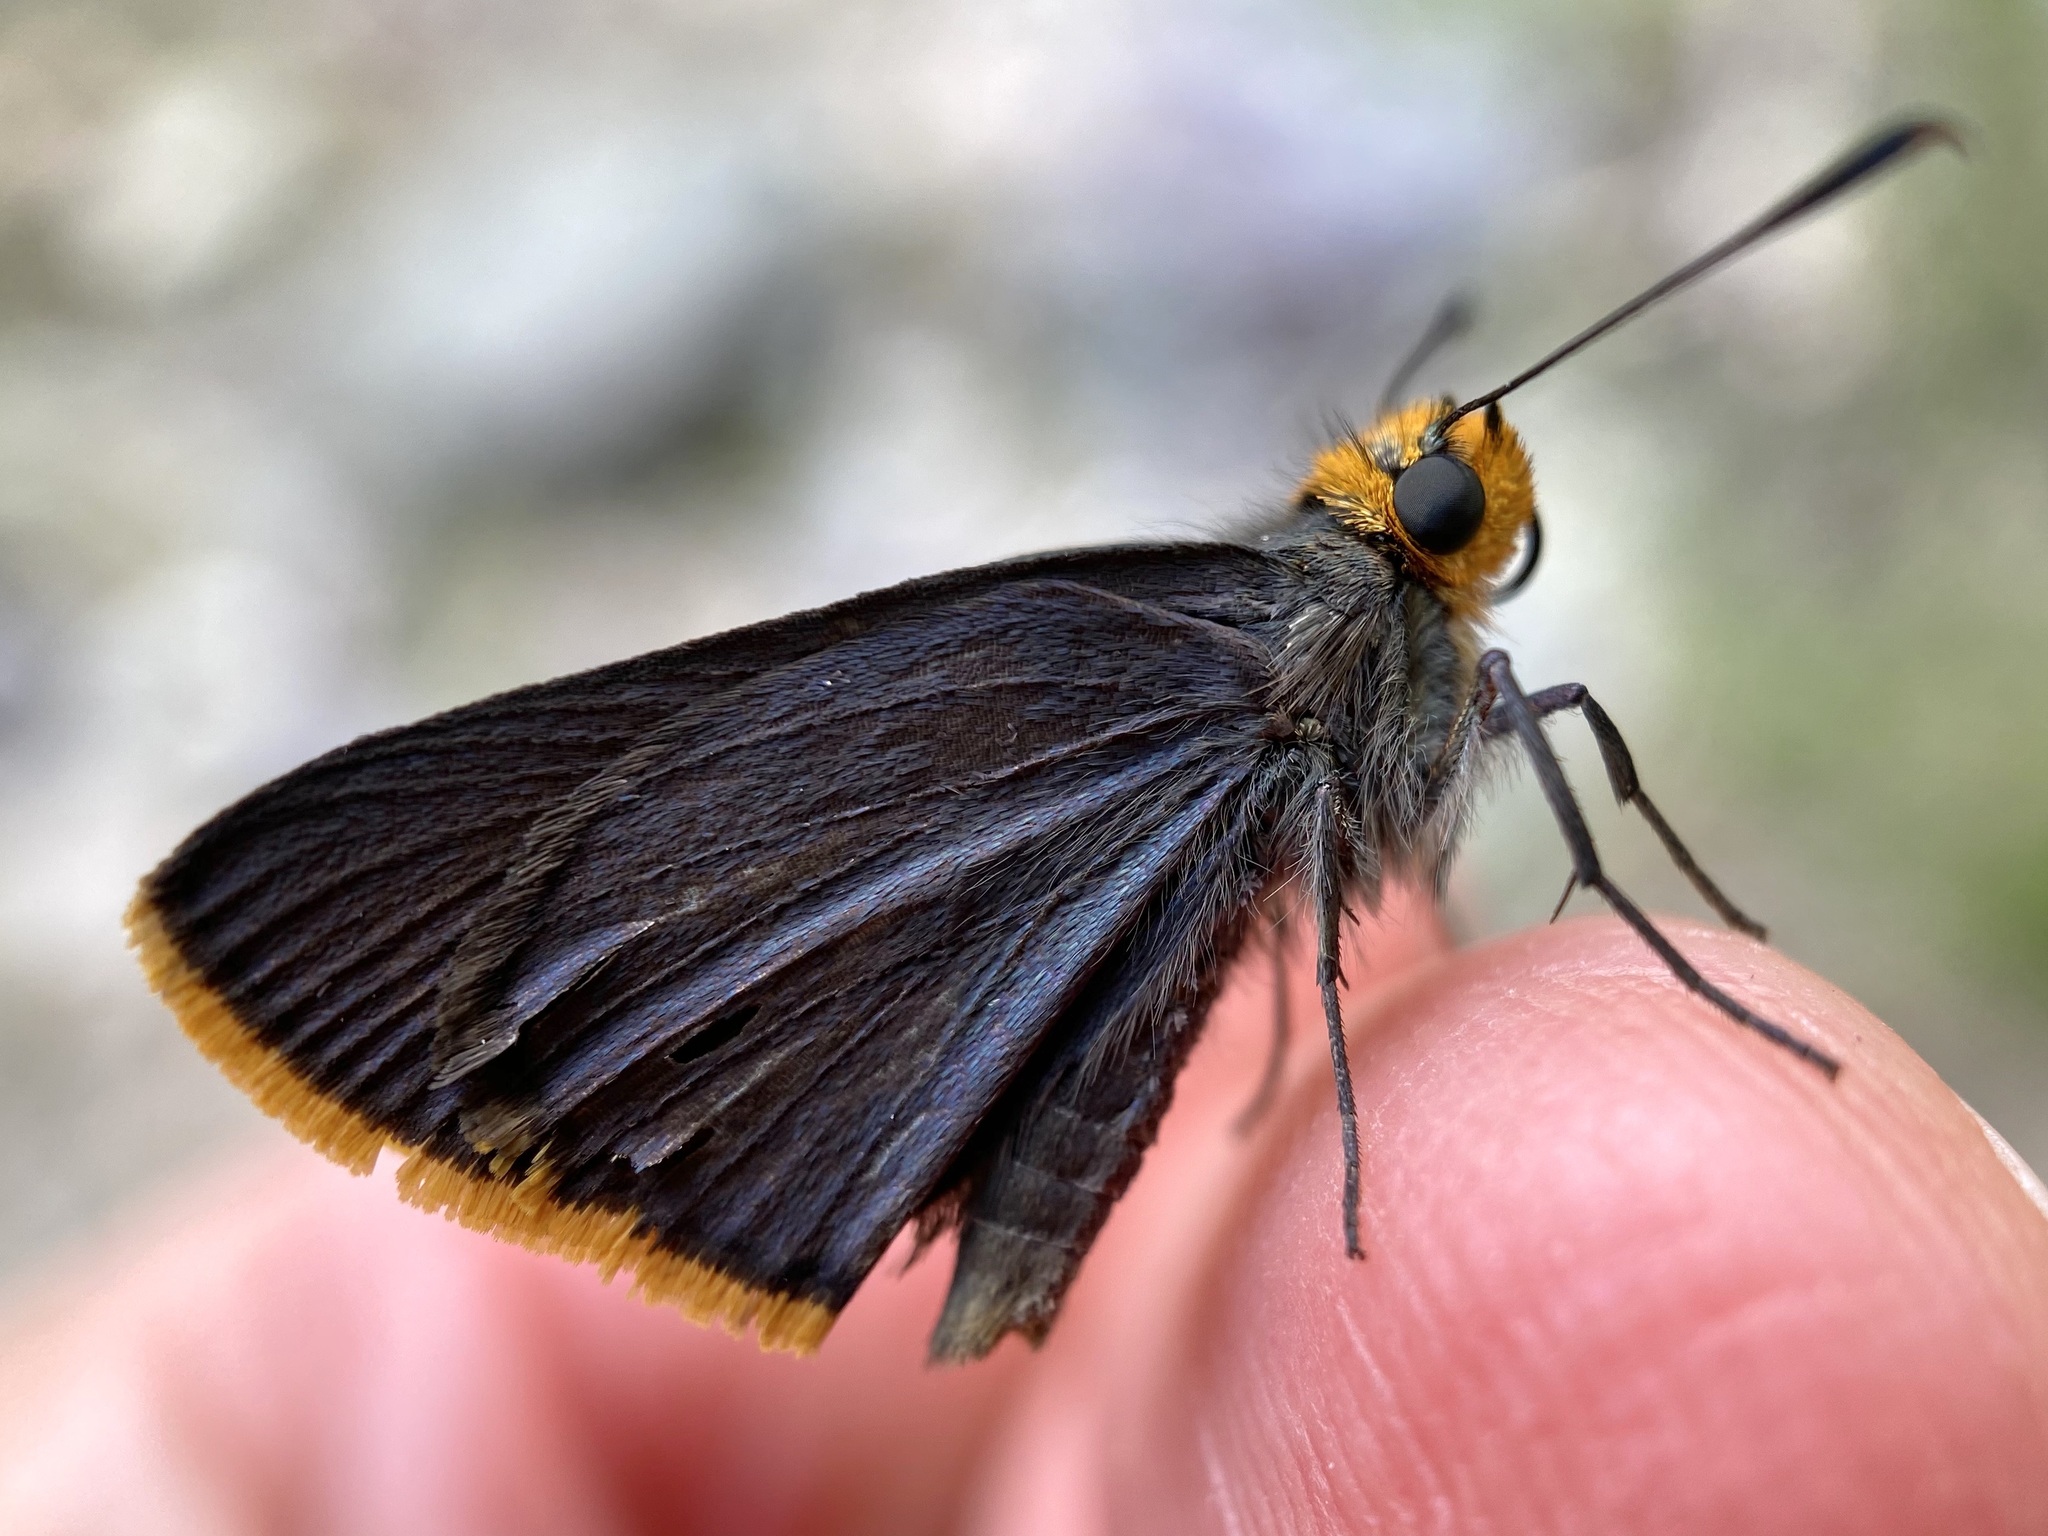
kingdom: Animalia
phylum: Arthropoda
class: Insecta
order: Lepidoptera
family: Hesperiidae
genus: Mastor
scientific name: Mastor fimbriata
